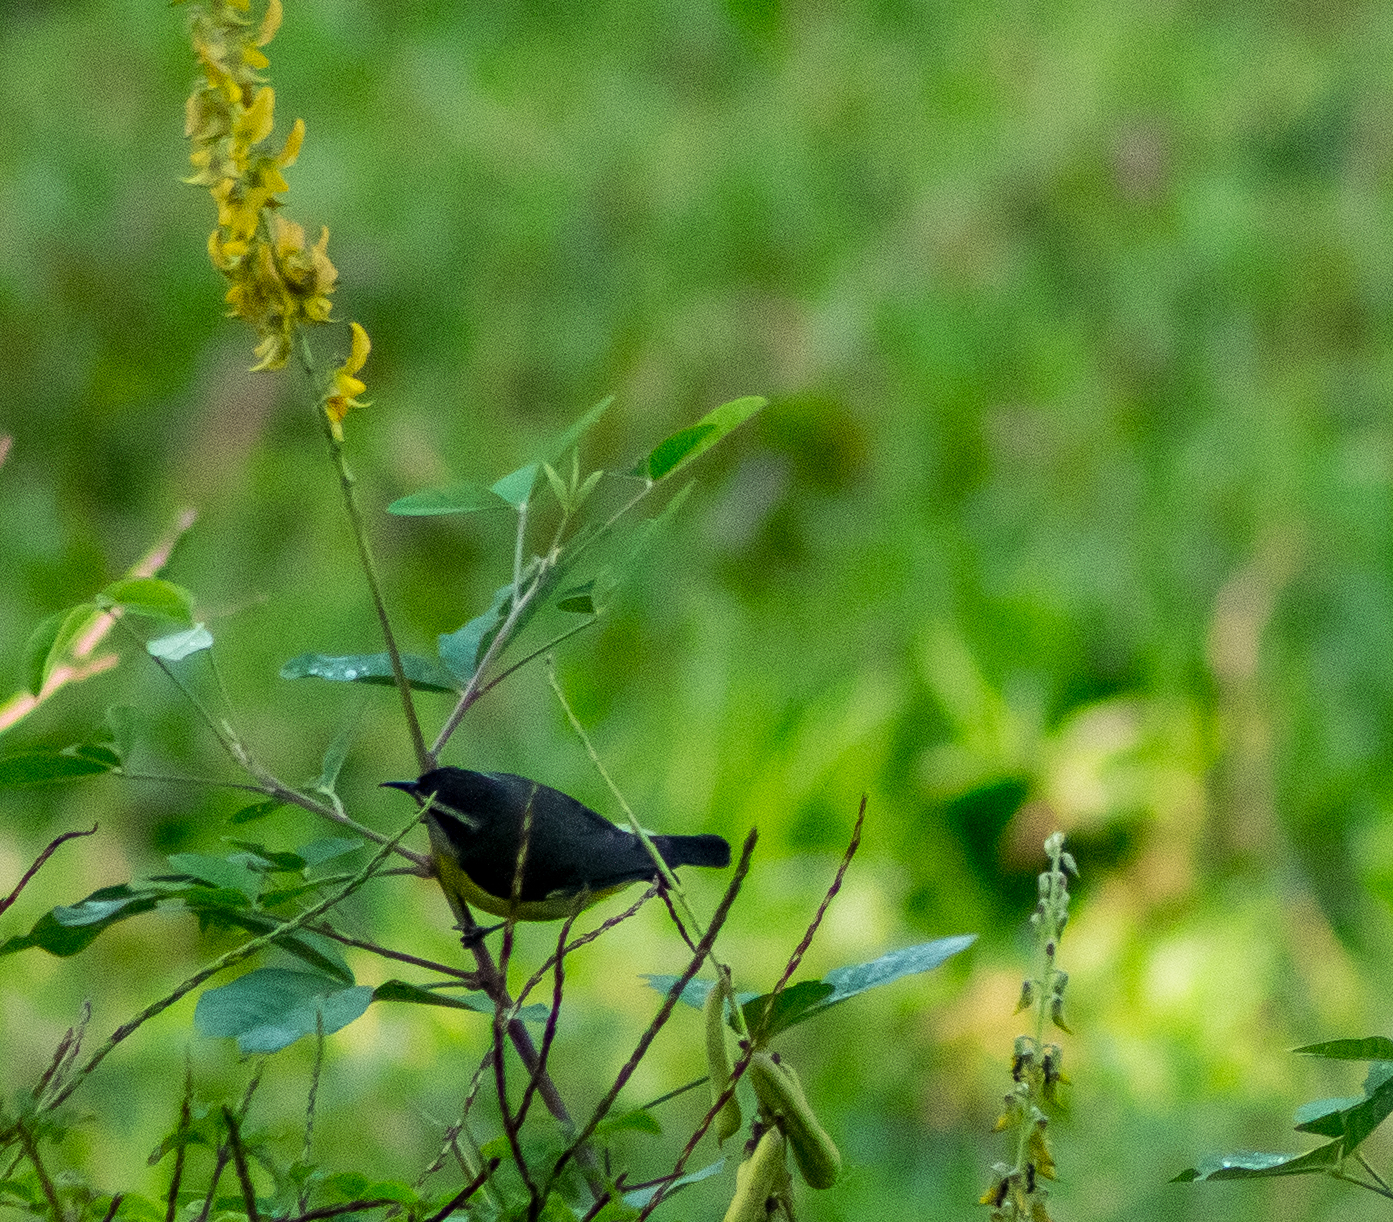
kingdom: Animalia
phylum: Chordata
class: Aves
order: Passeriformes
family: Thraupidae
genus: Coereba
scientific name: Coereba flaveola
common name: Bananaquit
